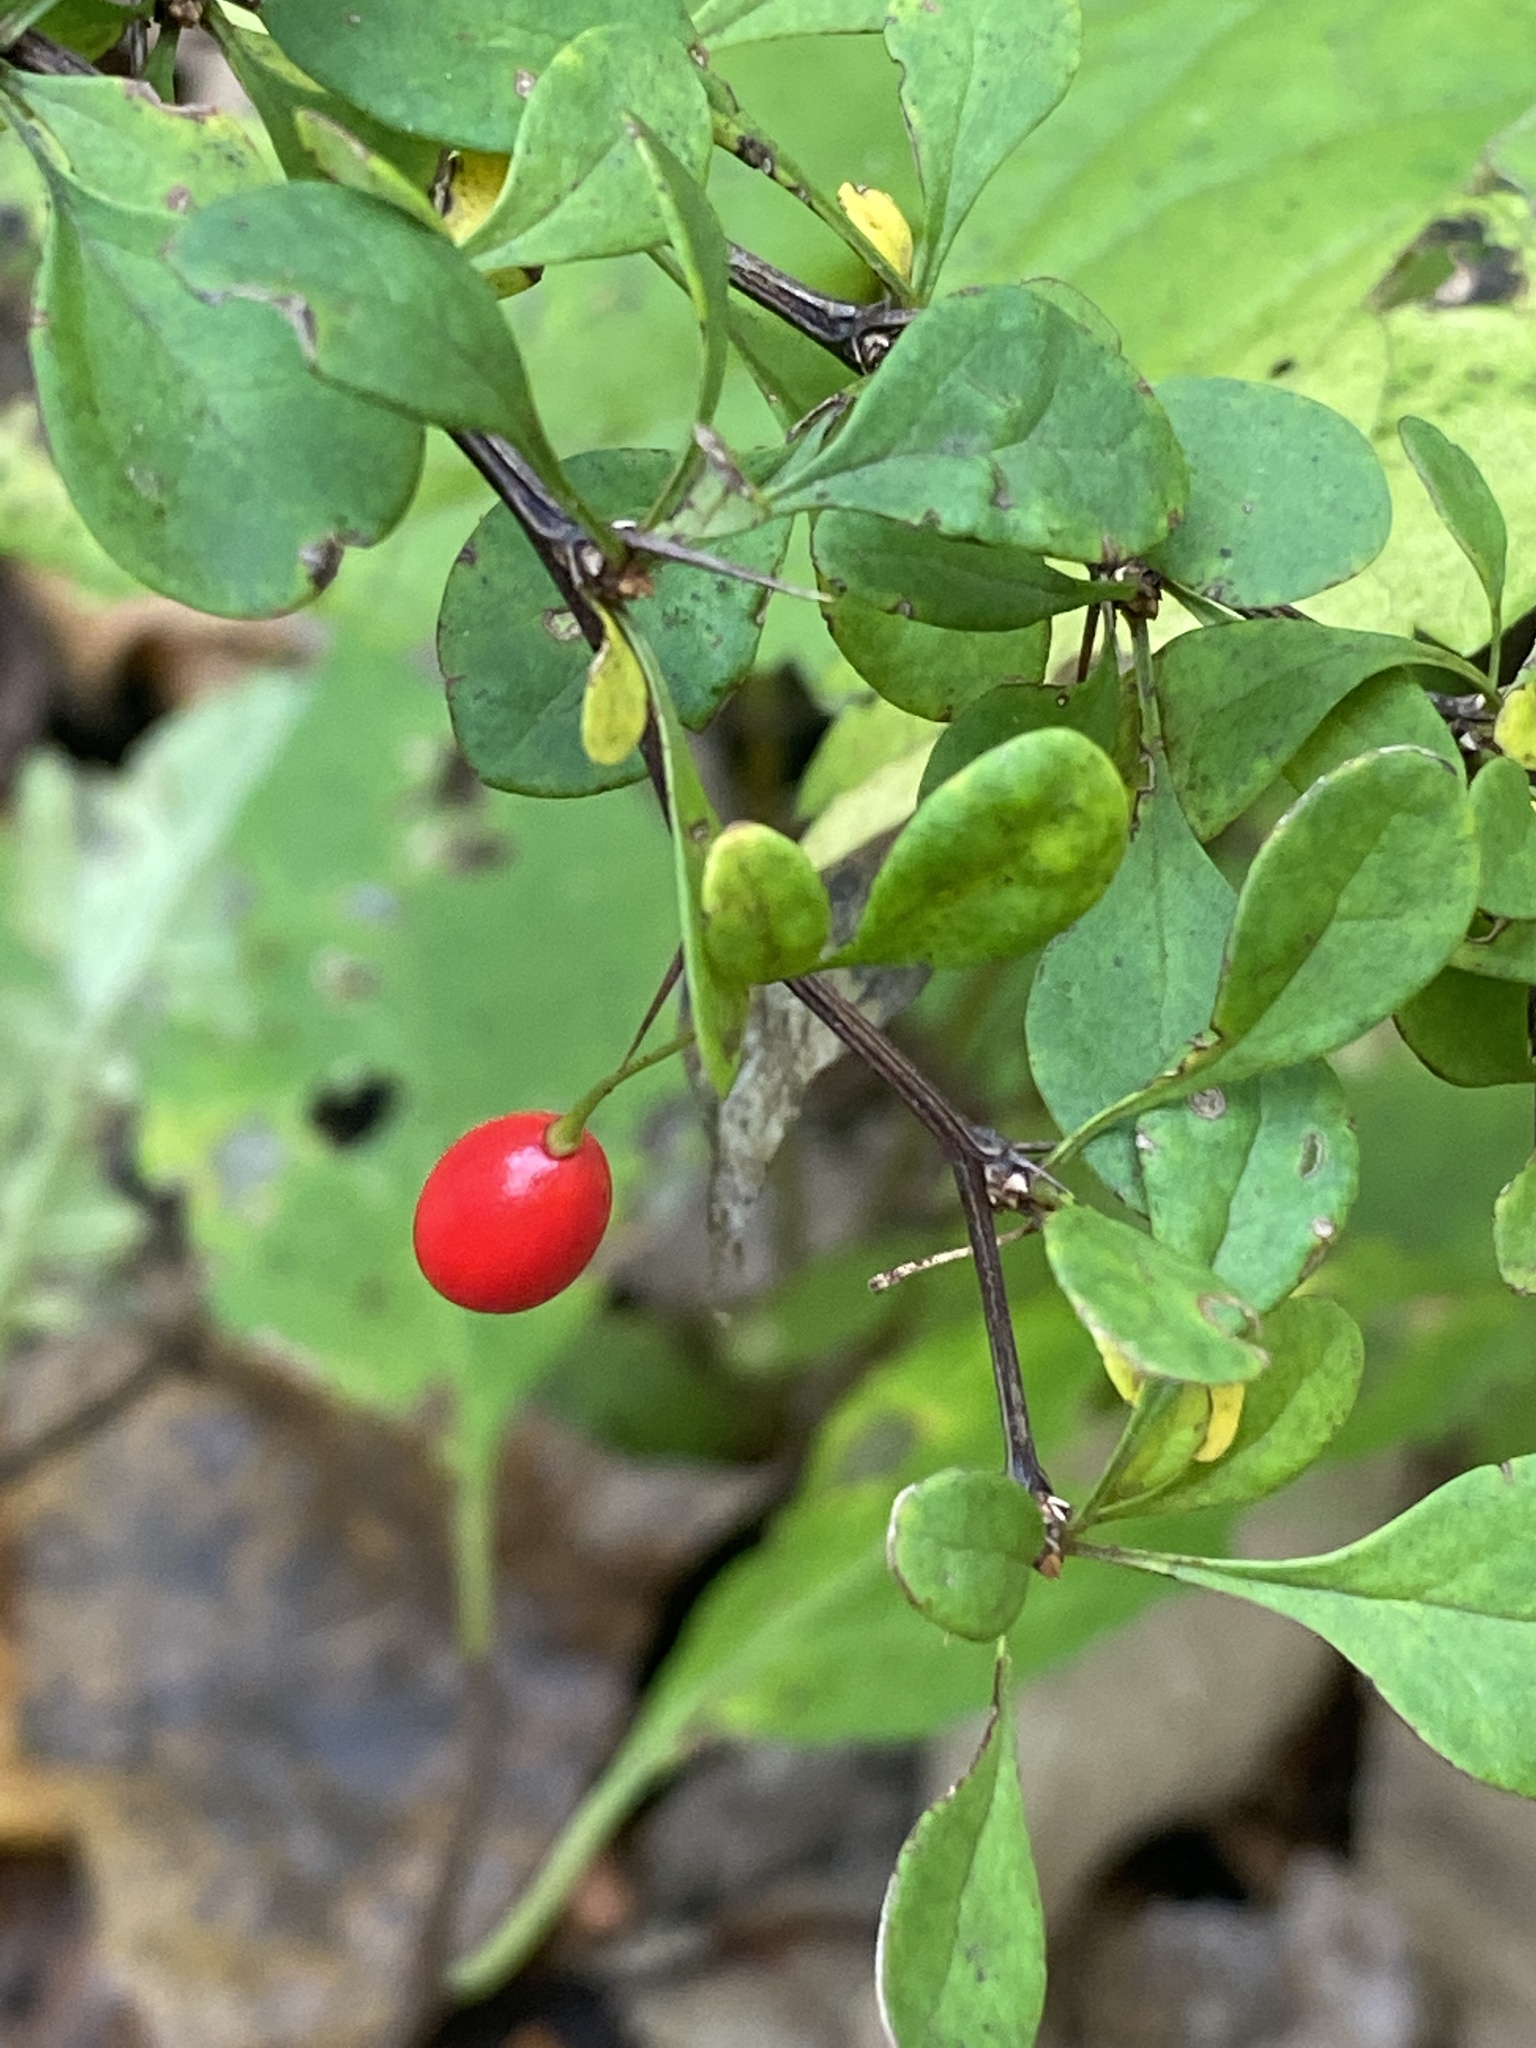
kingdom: Plantae
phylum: Tracheophyta
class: Magnoliopsida
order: Ranunculales
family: Berberidaceae
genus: Berberis
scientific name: Berberis thunbergii
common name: Japanese barberry
